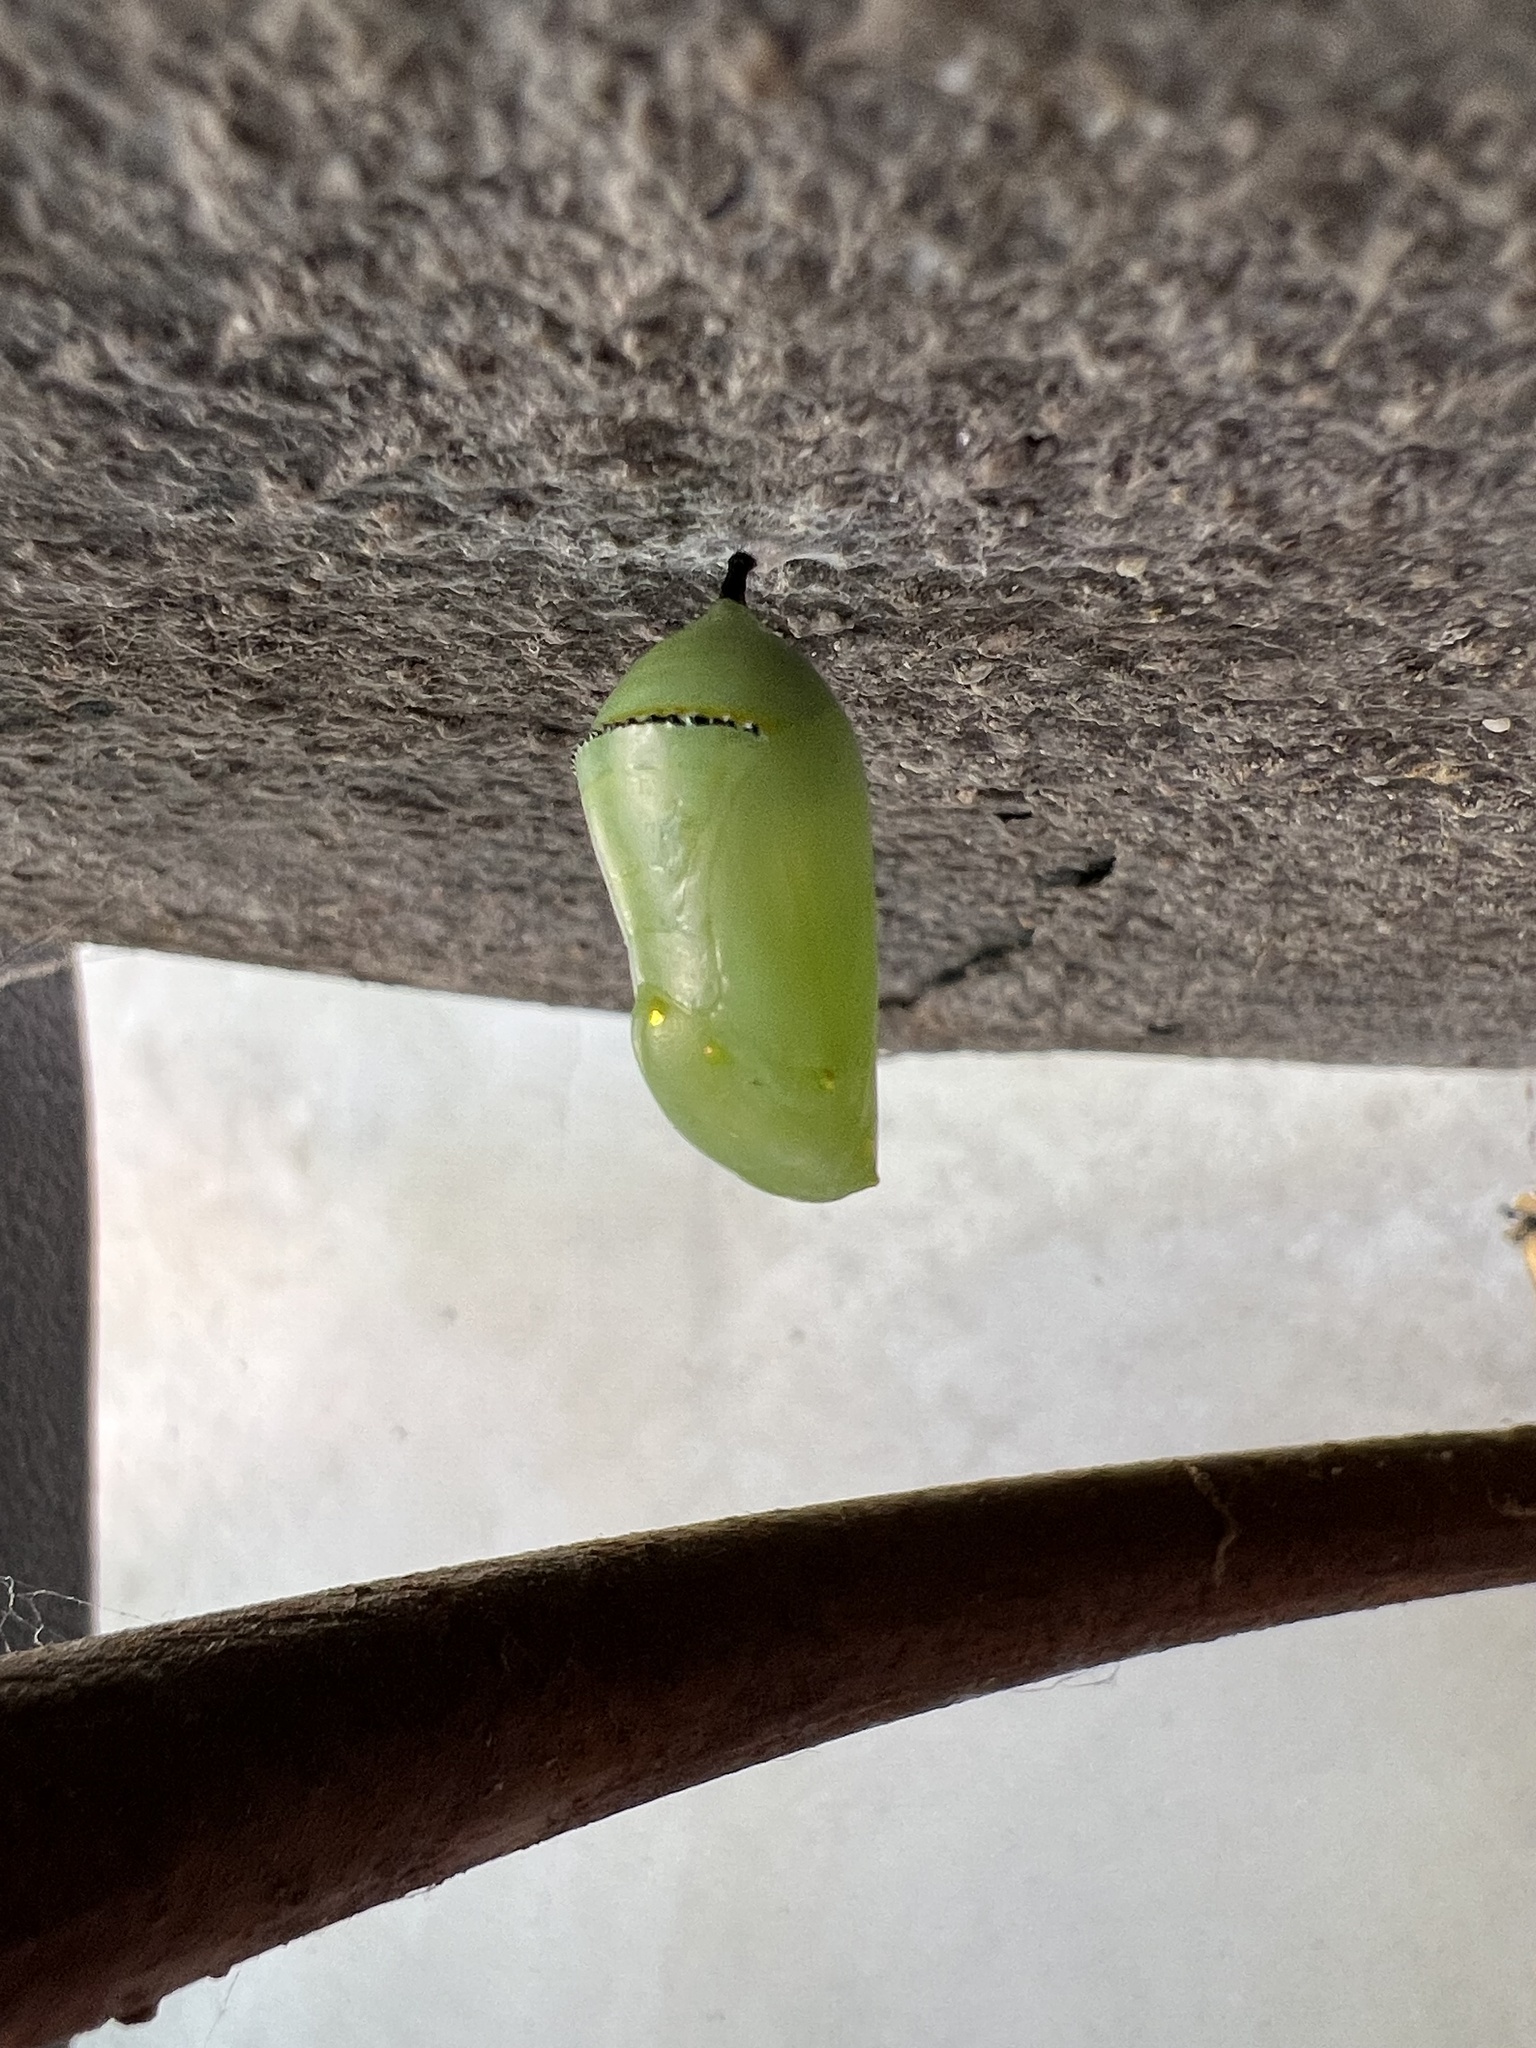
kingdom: Animalia
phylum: Arthropoda
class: Insecta
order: Lepidoptera
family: Nymphalidae
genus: Danaus
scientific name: Danaus plexippus
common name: Monarch
